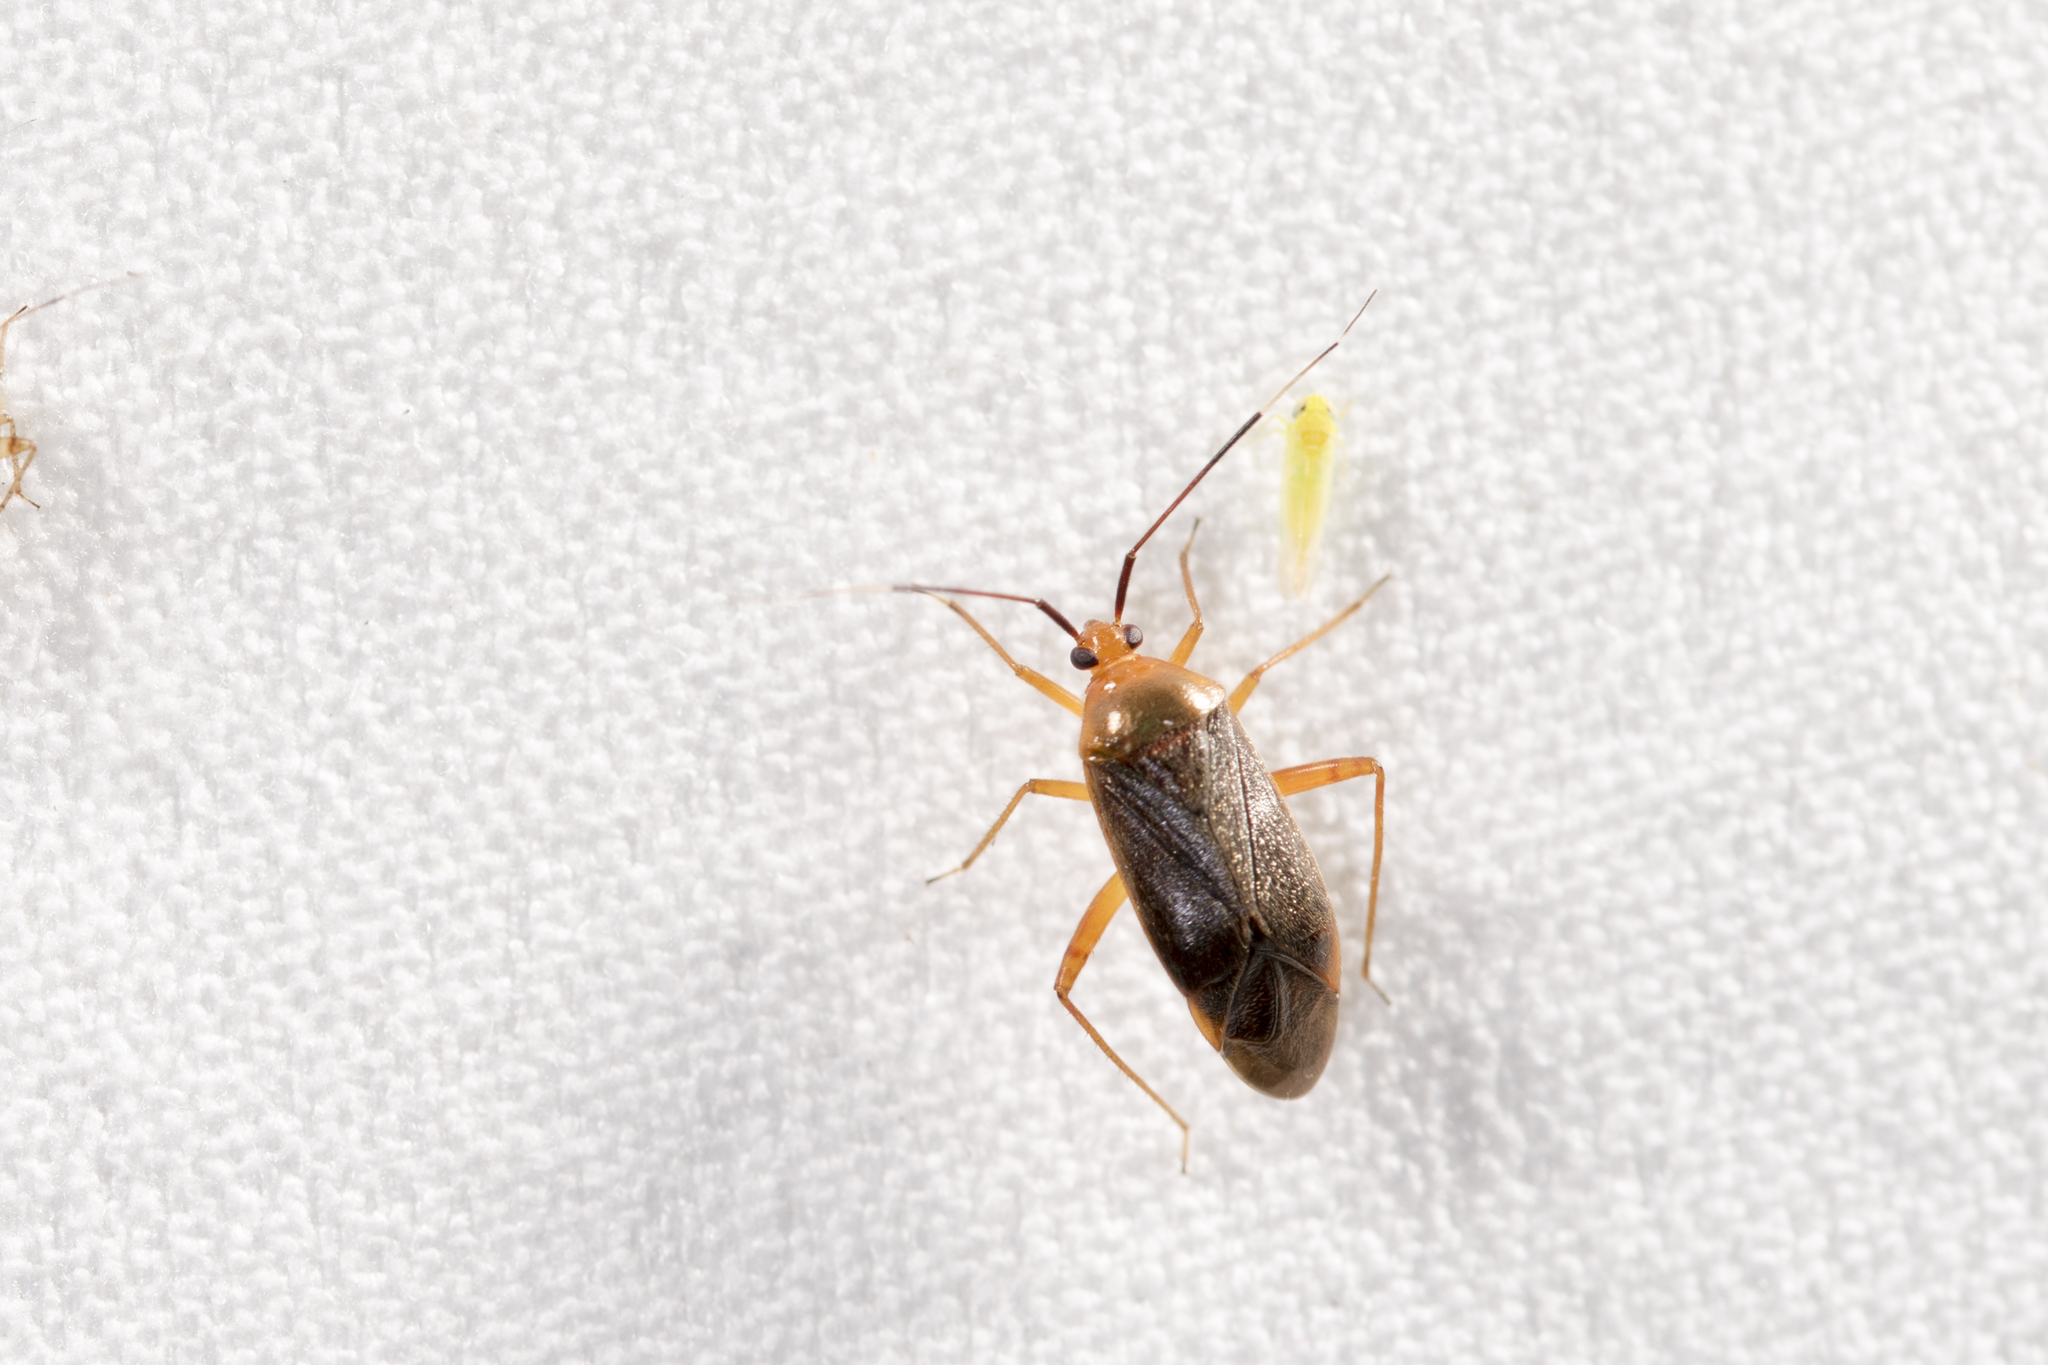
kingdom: Animalia
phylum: Arthropoda
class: Insecta
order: Hemiptera
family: Miridae
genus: Gotoshinomiris
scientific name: Gotoshinomiris
